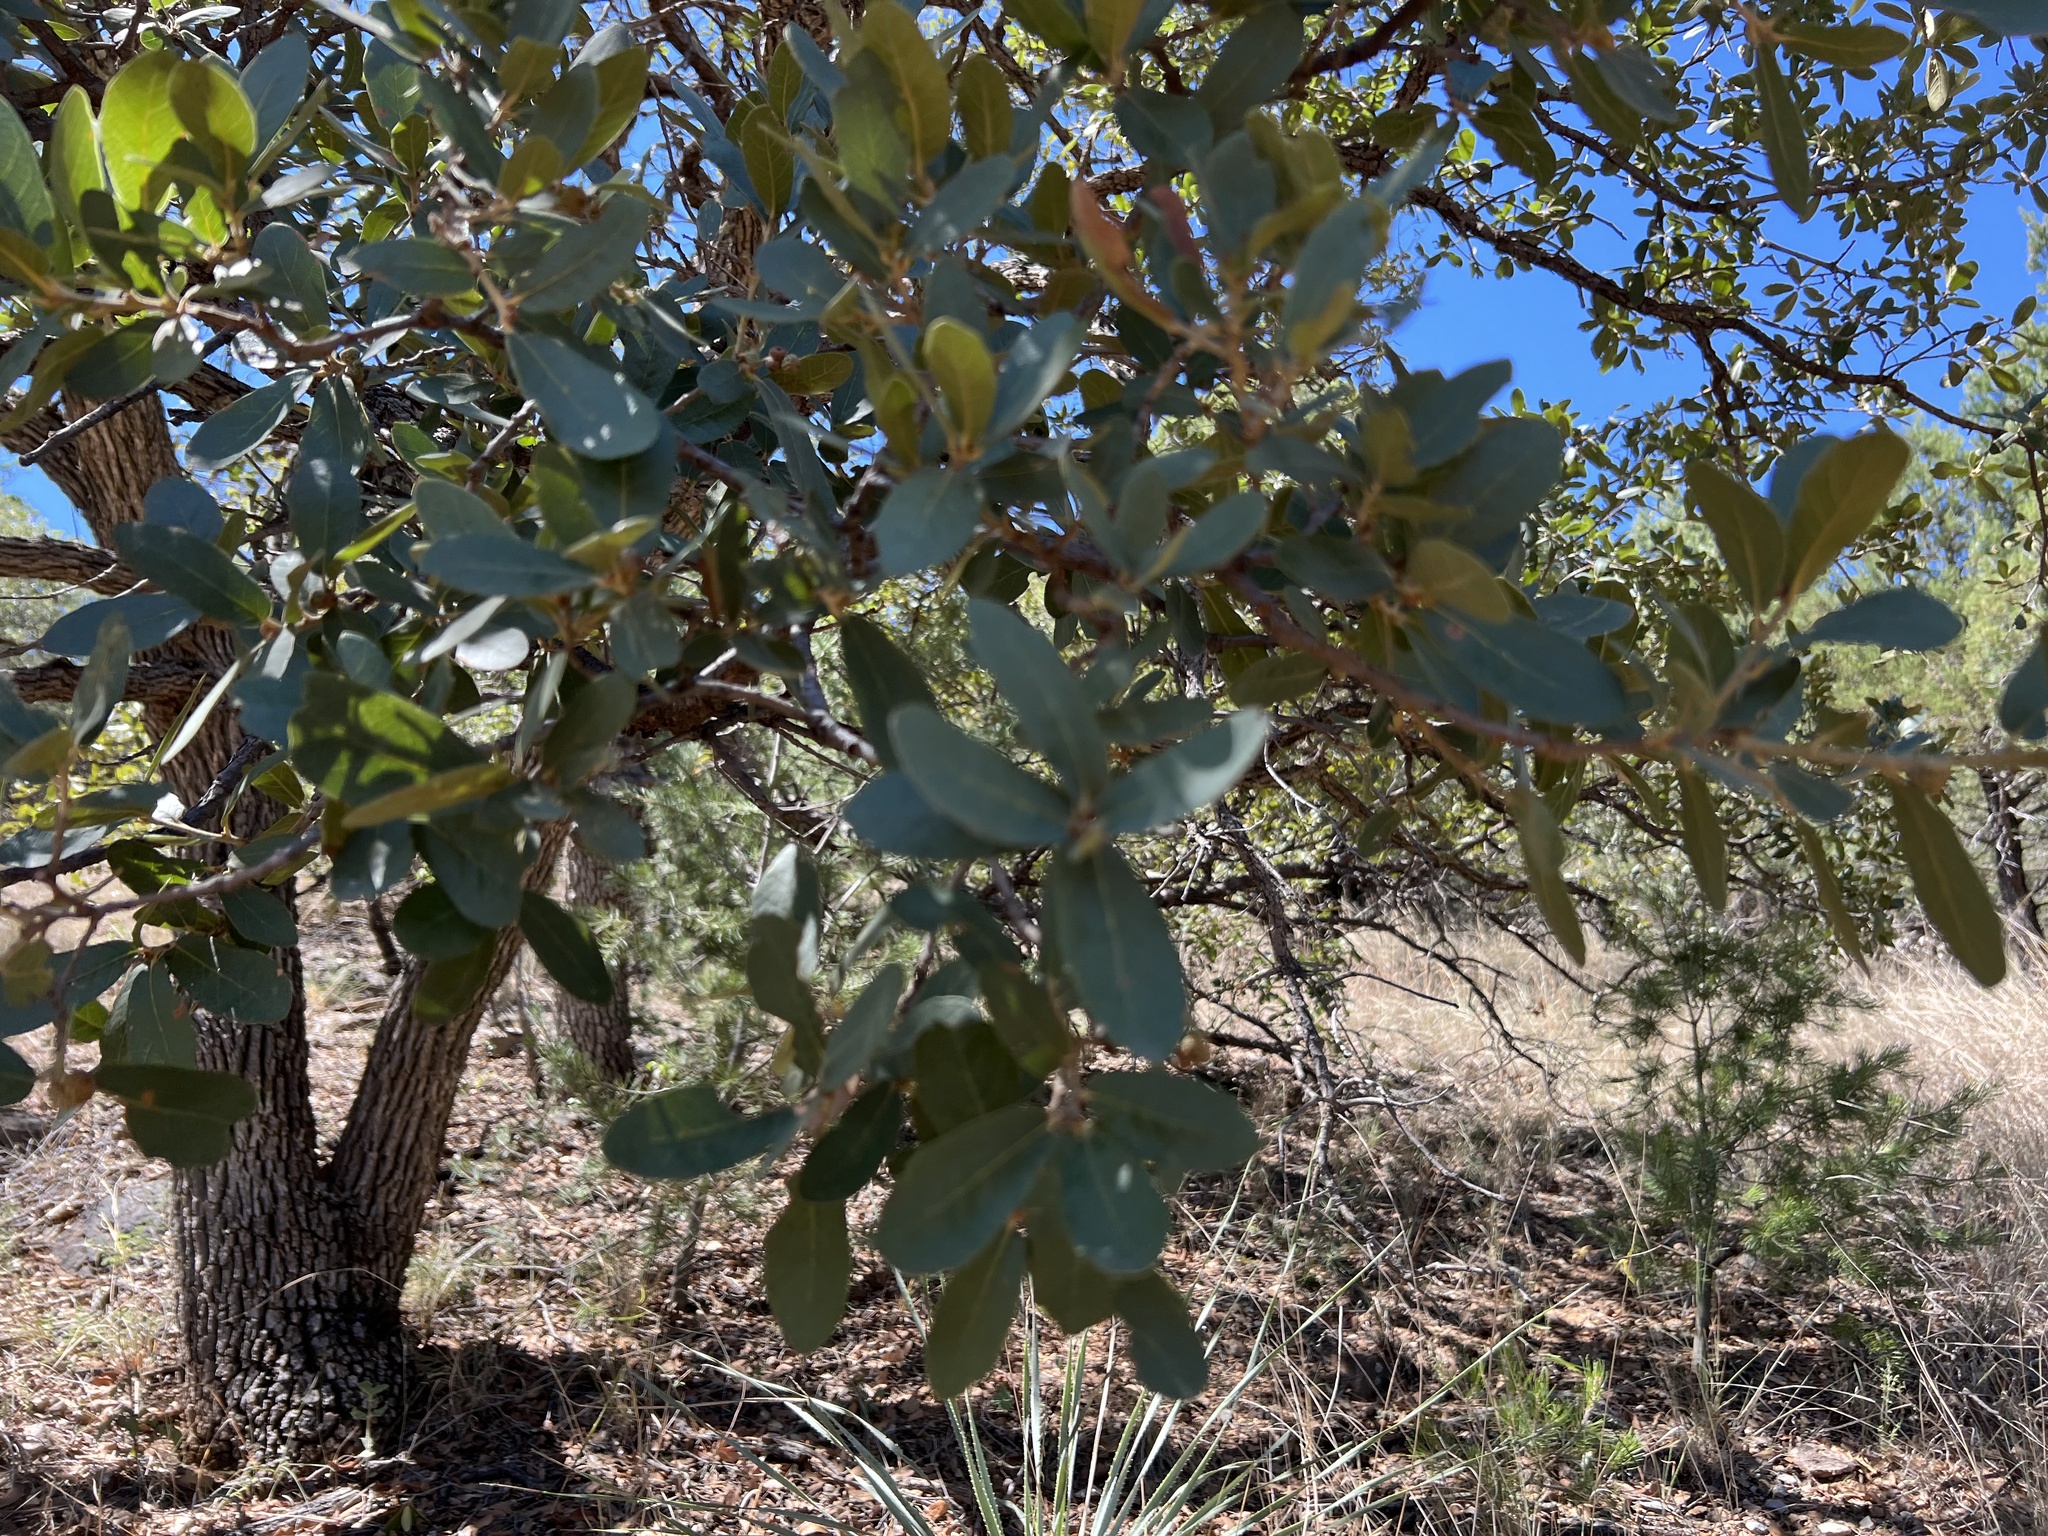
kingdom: Plantae
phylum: Tracheophyta
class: Magnoliopsida
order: Fagales
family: Fagaceae
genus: Quercus
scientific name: Quercus oblongifolia
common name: Mexican blue oak
